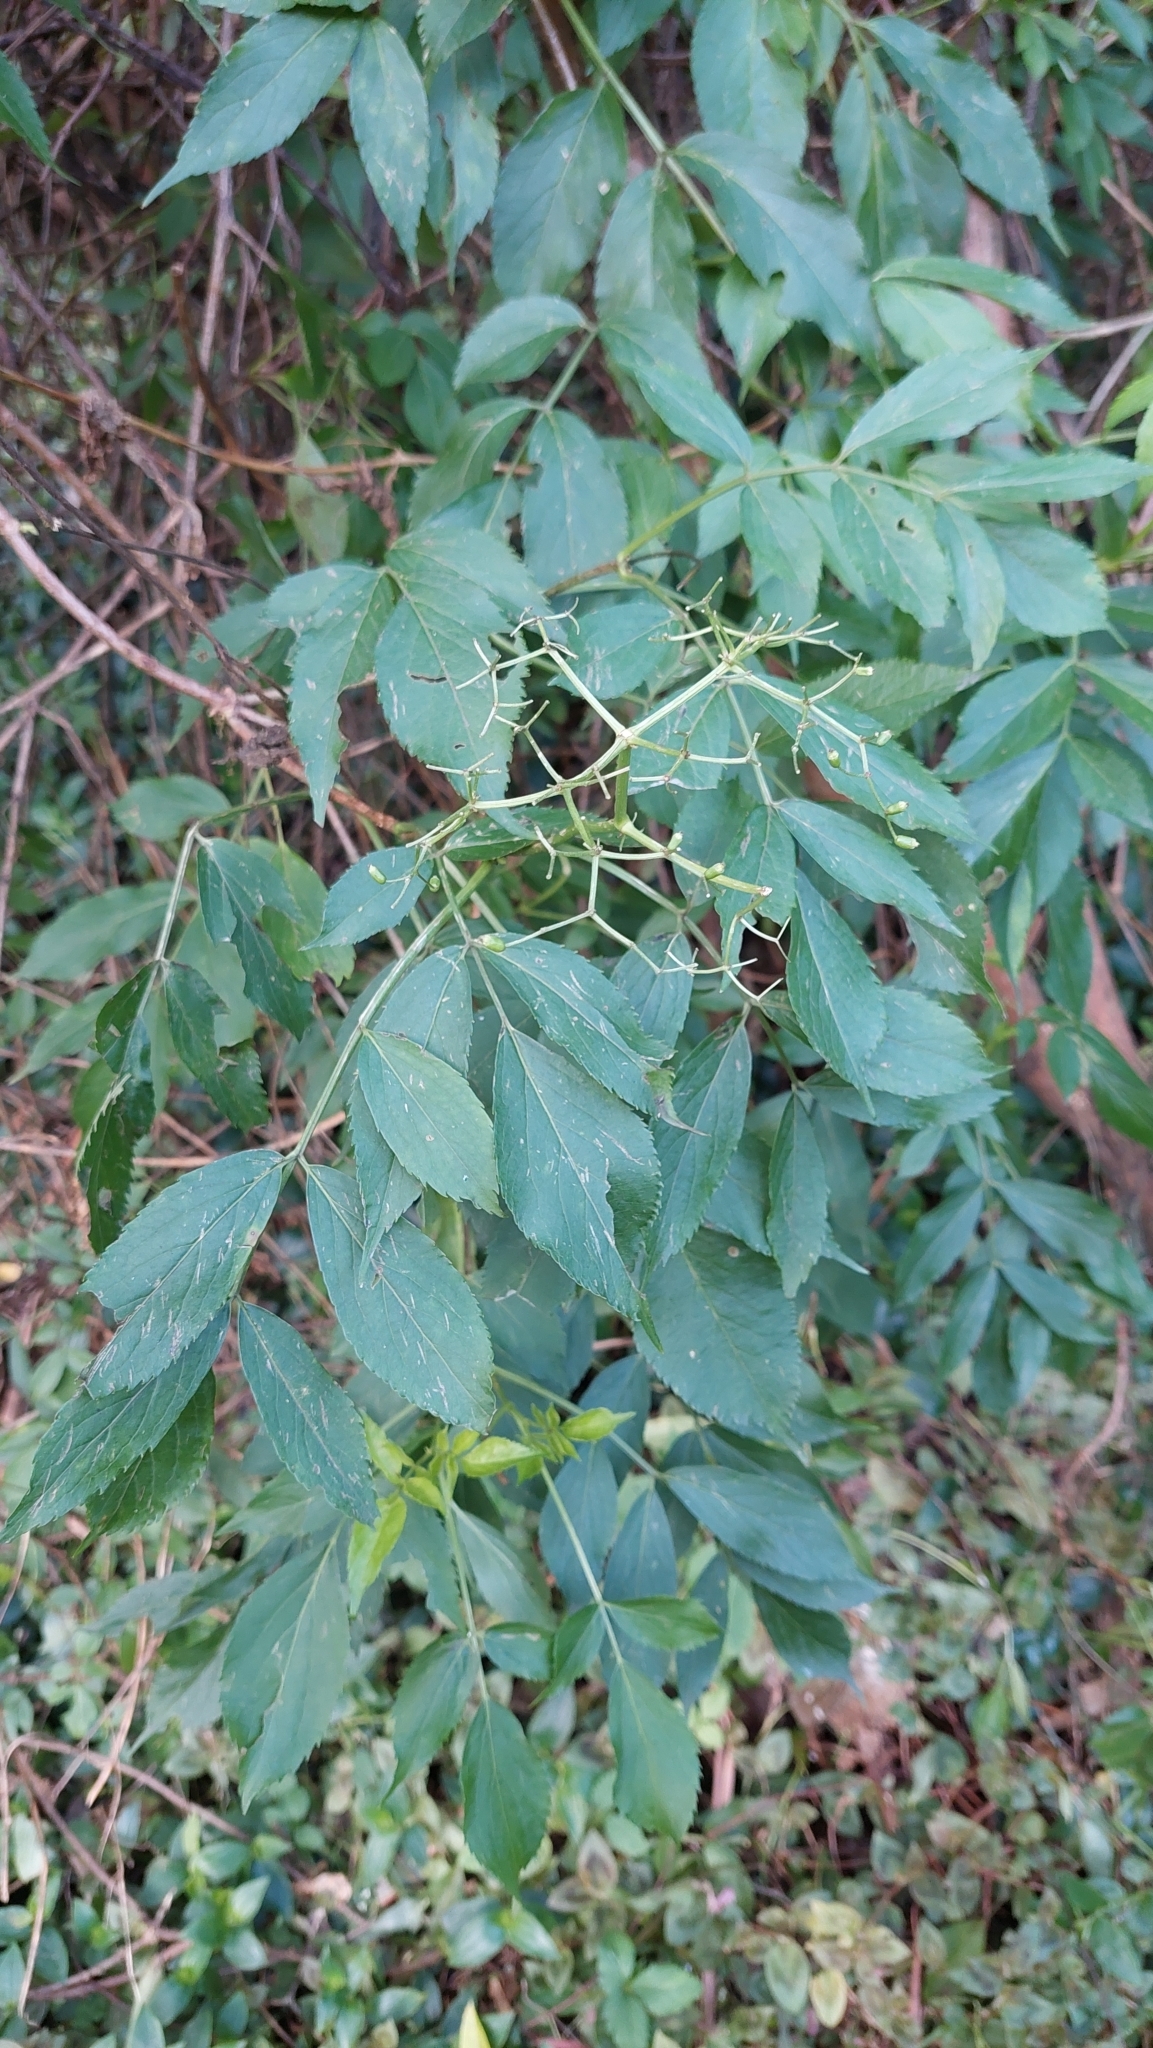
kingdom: Plantae
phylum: Tracheophyta
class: Magnoliopsida
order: Dipsacales
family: Viburnaceae
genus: Sambucus
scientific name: Sambucus nigra
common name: Elder
